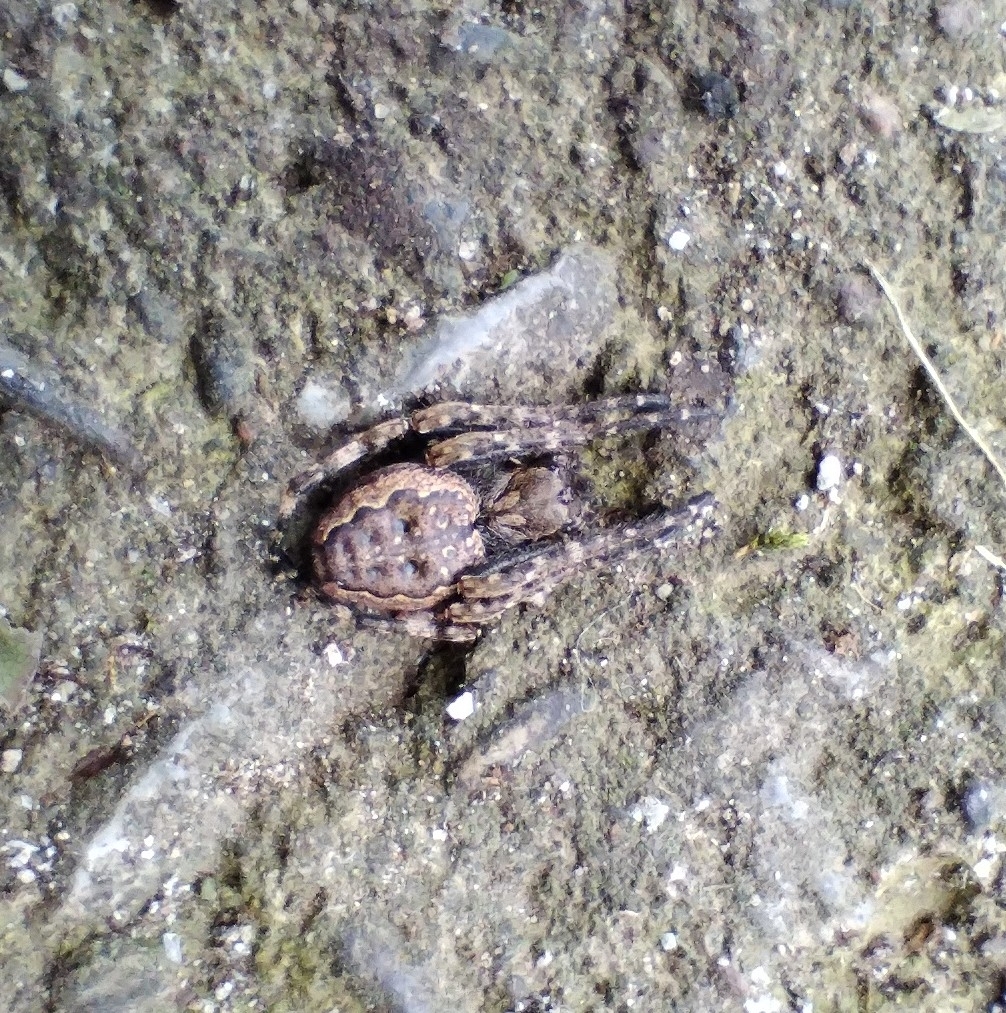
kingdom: Animalia
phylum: Arthropoda
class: Arachnida
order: Araneae
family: Araneidae
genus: Nuctenea
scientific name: Nuctenea umbratica
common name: Toad spider
